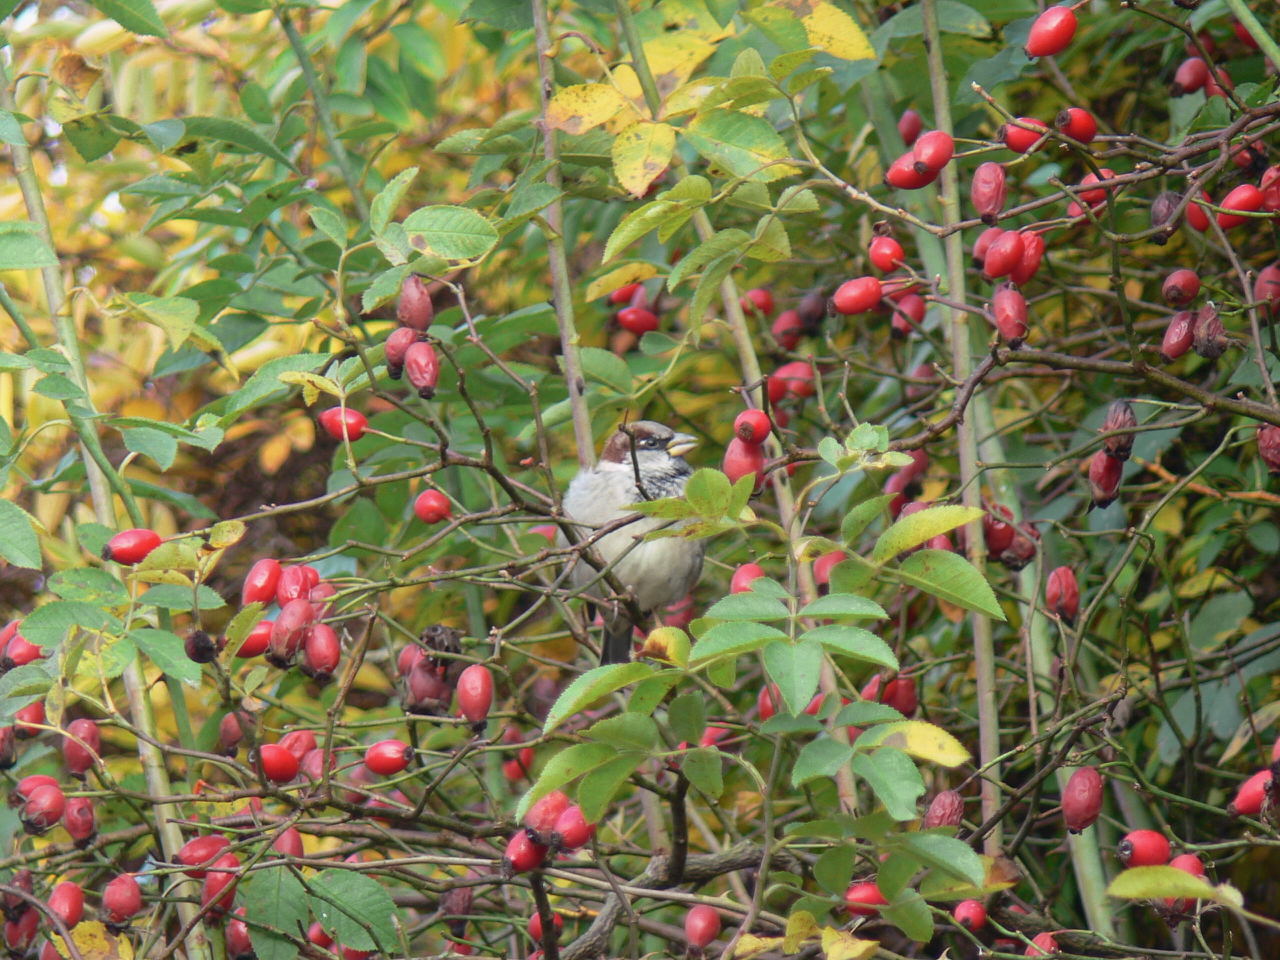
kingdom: Animalia
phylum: Chordata
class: Aves
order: Passeriformes
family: Passeridae
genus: Passer
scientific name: Passer domesticus
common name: House sparrow
